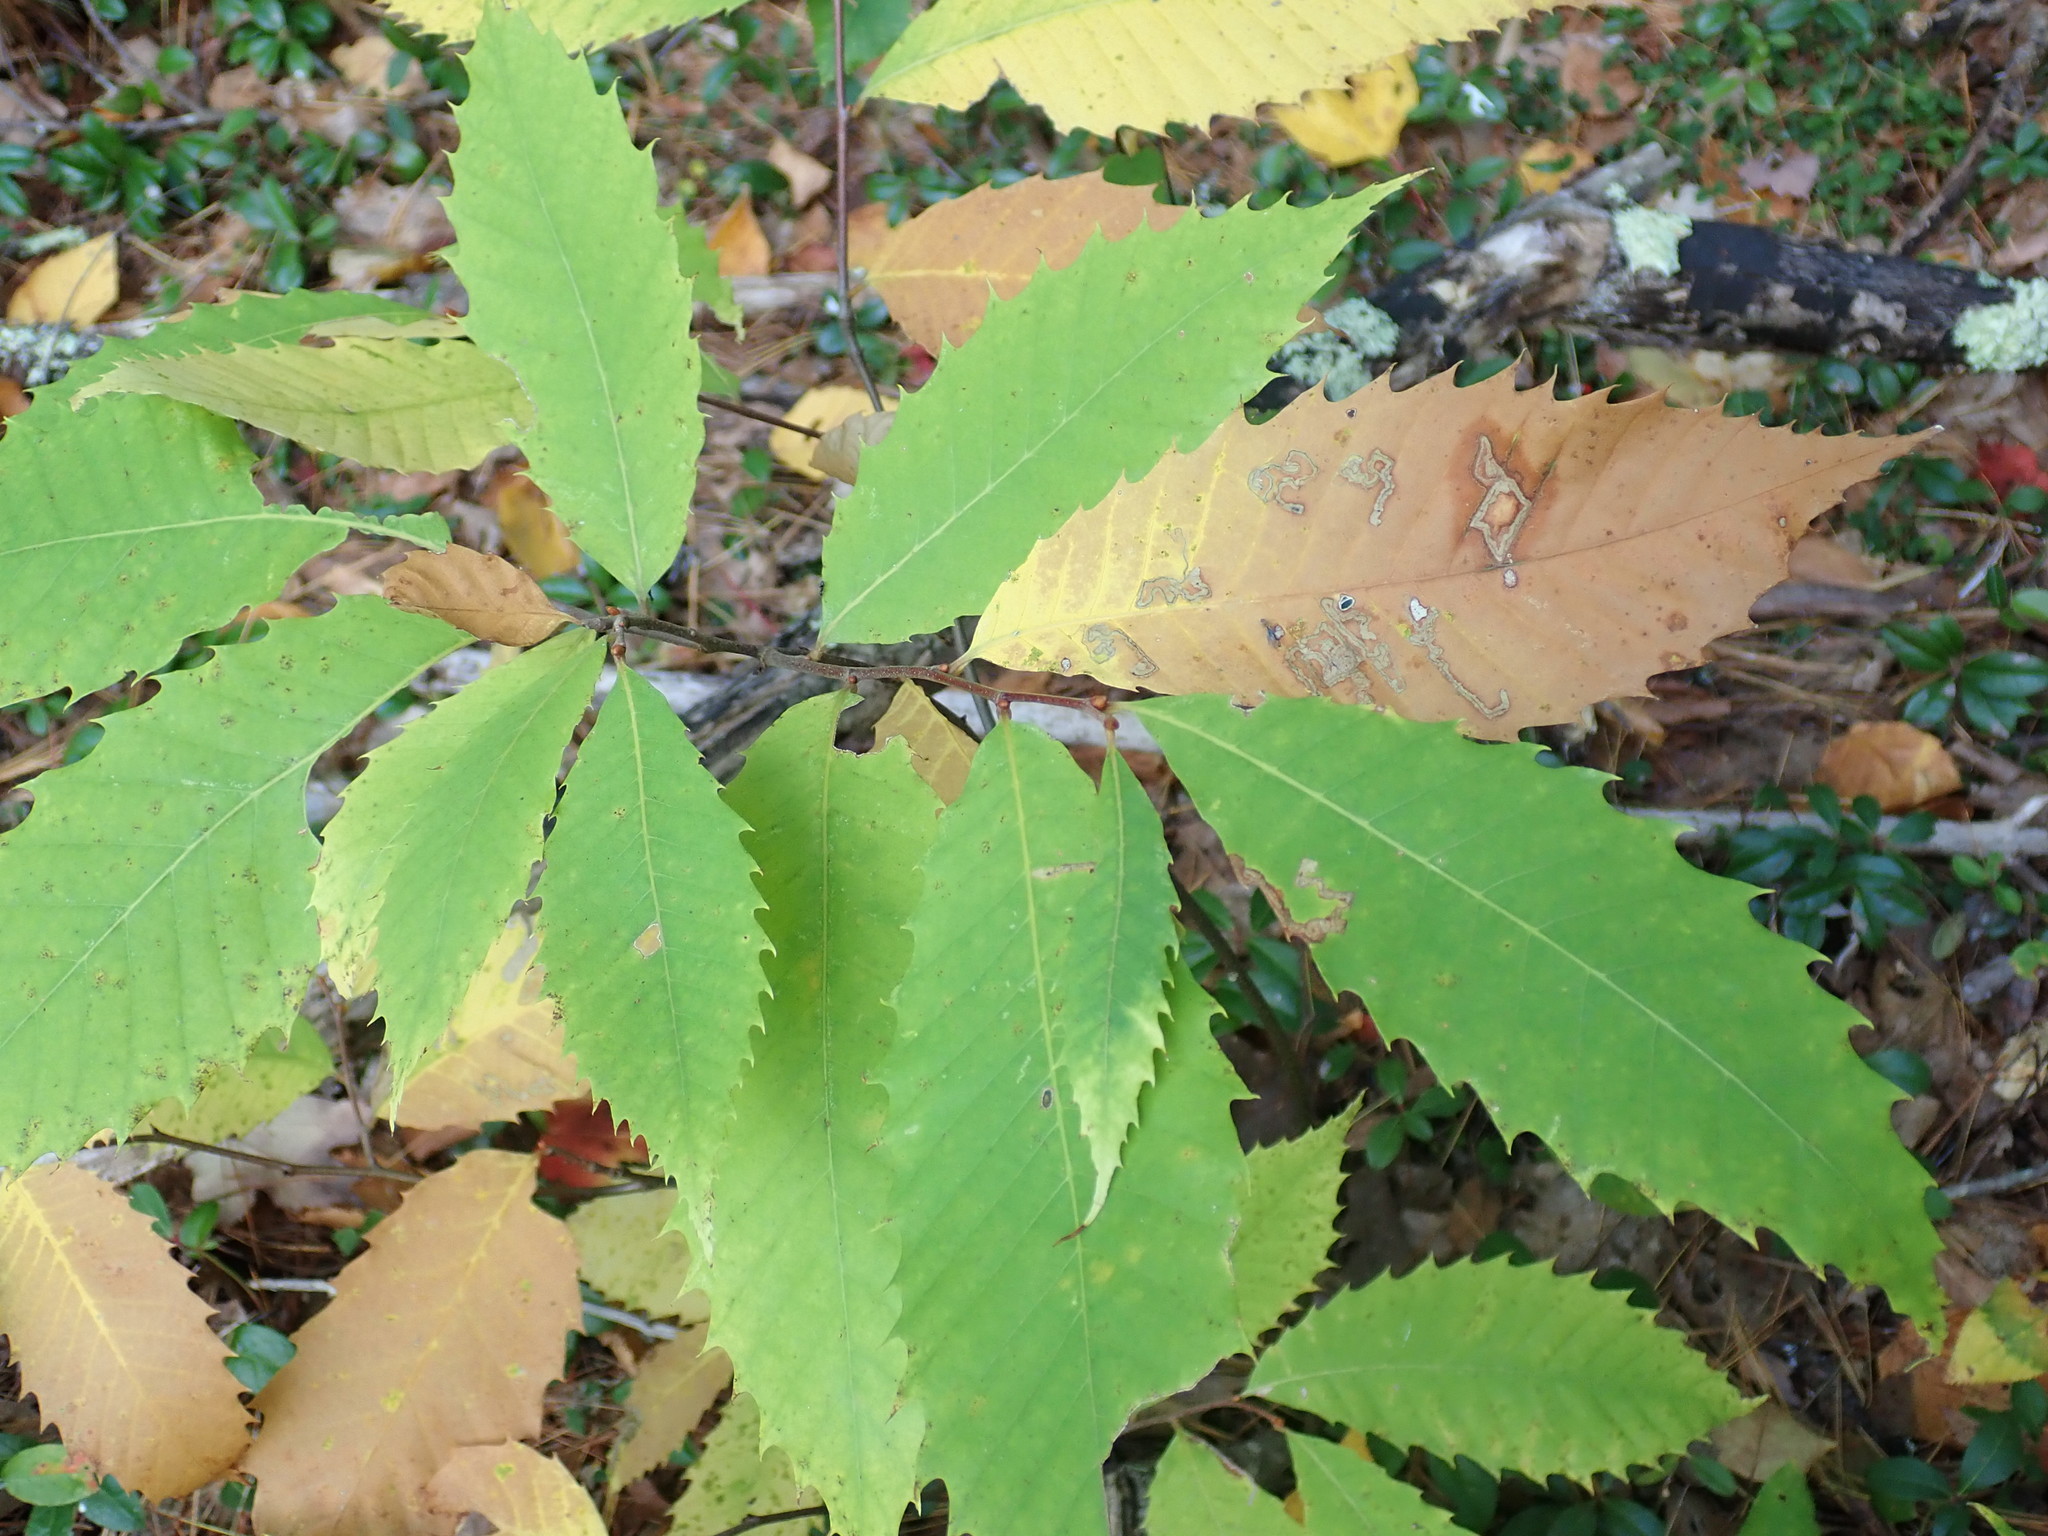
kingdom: Plantae
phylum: Tracheophyta
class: Magnoliopsida
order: Fagales
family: Fagaceae
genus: Castanea
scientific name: Castanea dentata
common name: American chestnut
